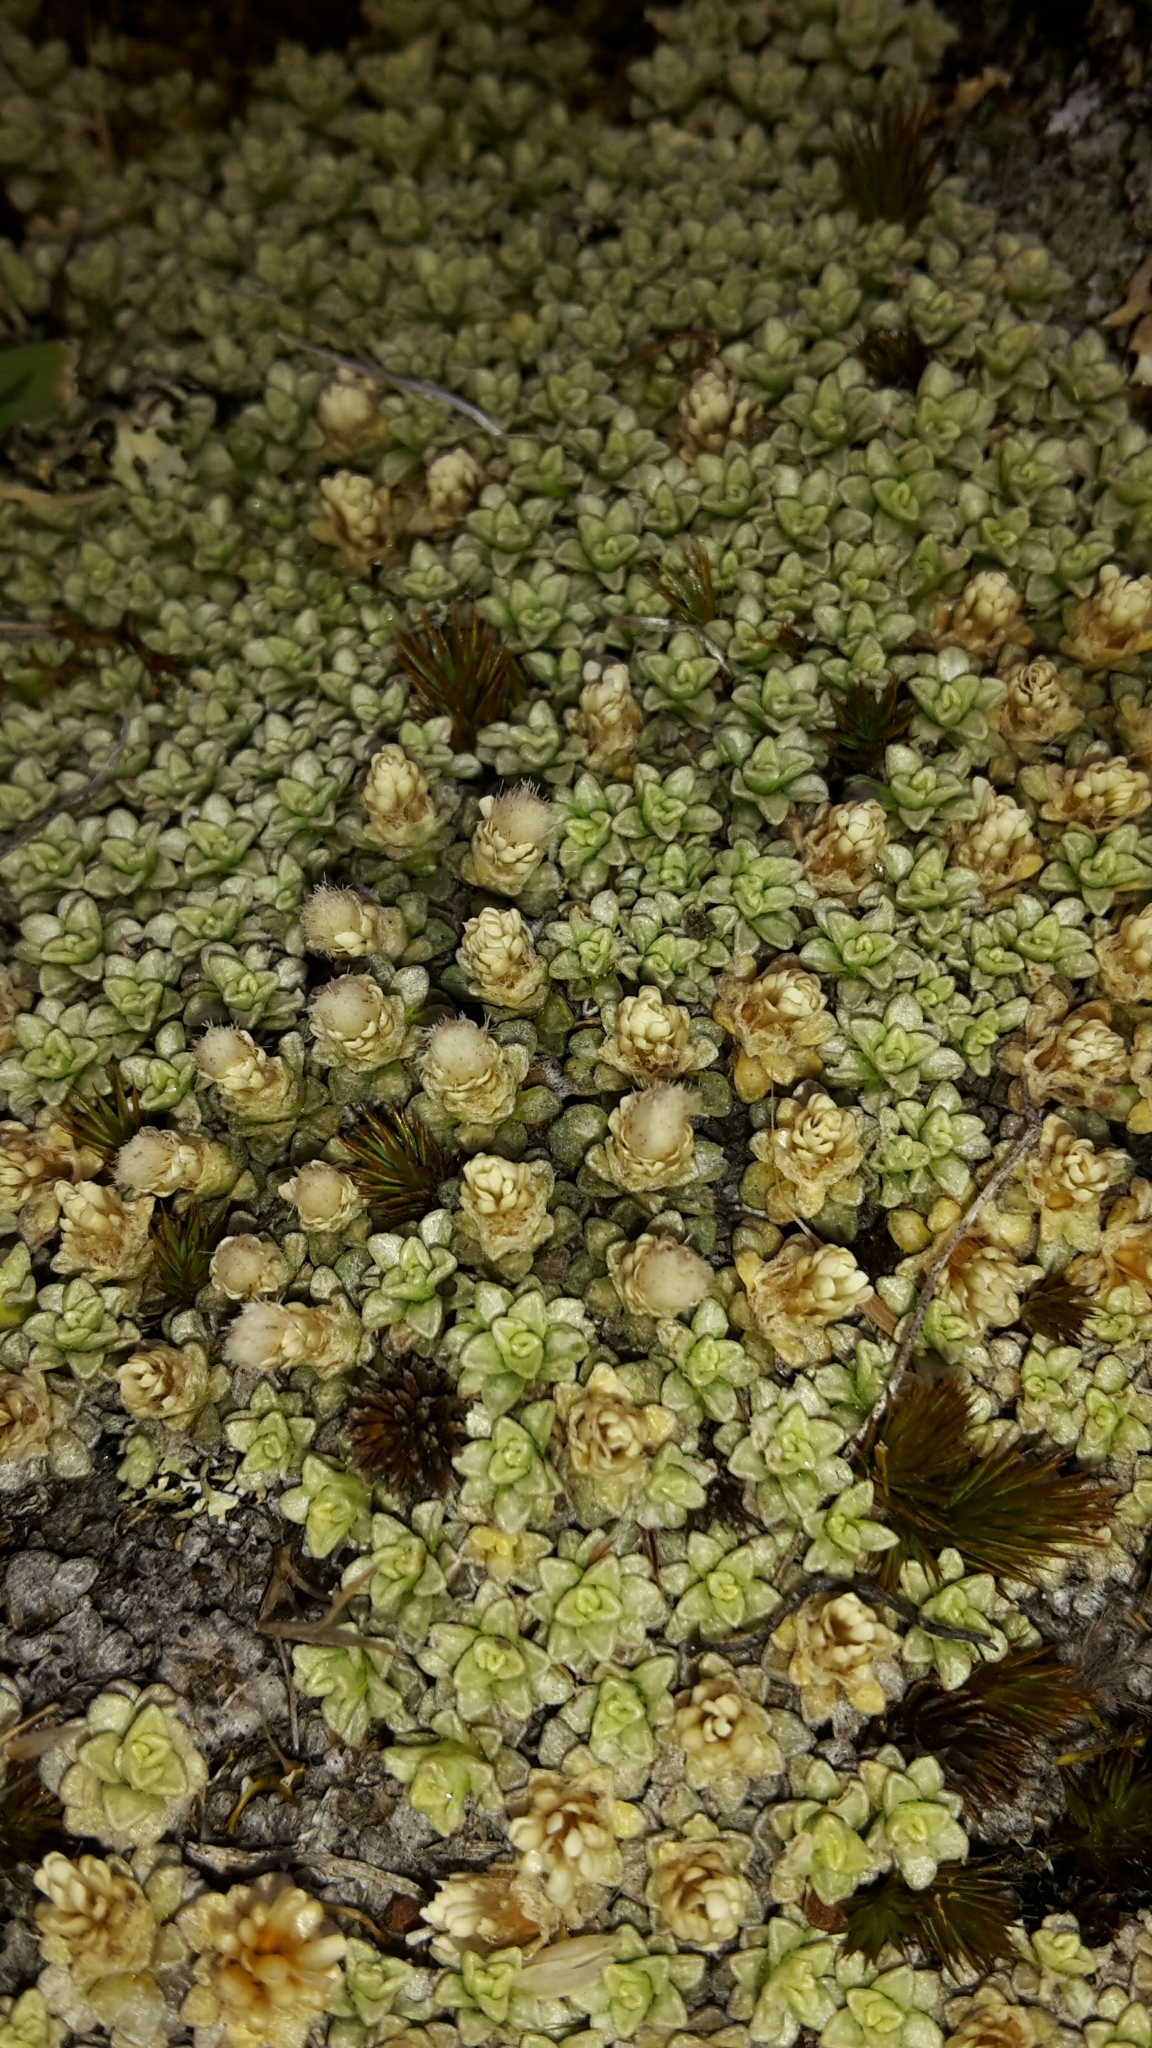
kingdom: Plantae
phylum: Tracheophyta
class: Magnoliopsida
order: Asterales
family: Asteraceae
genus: Raoulia
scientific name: Raoulia parkii
